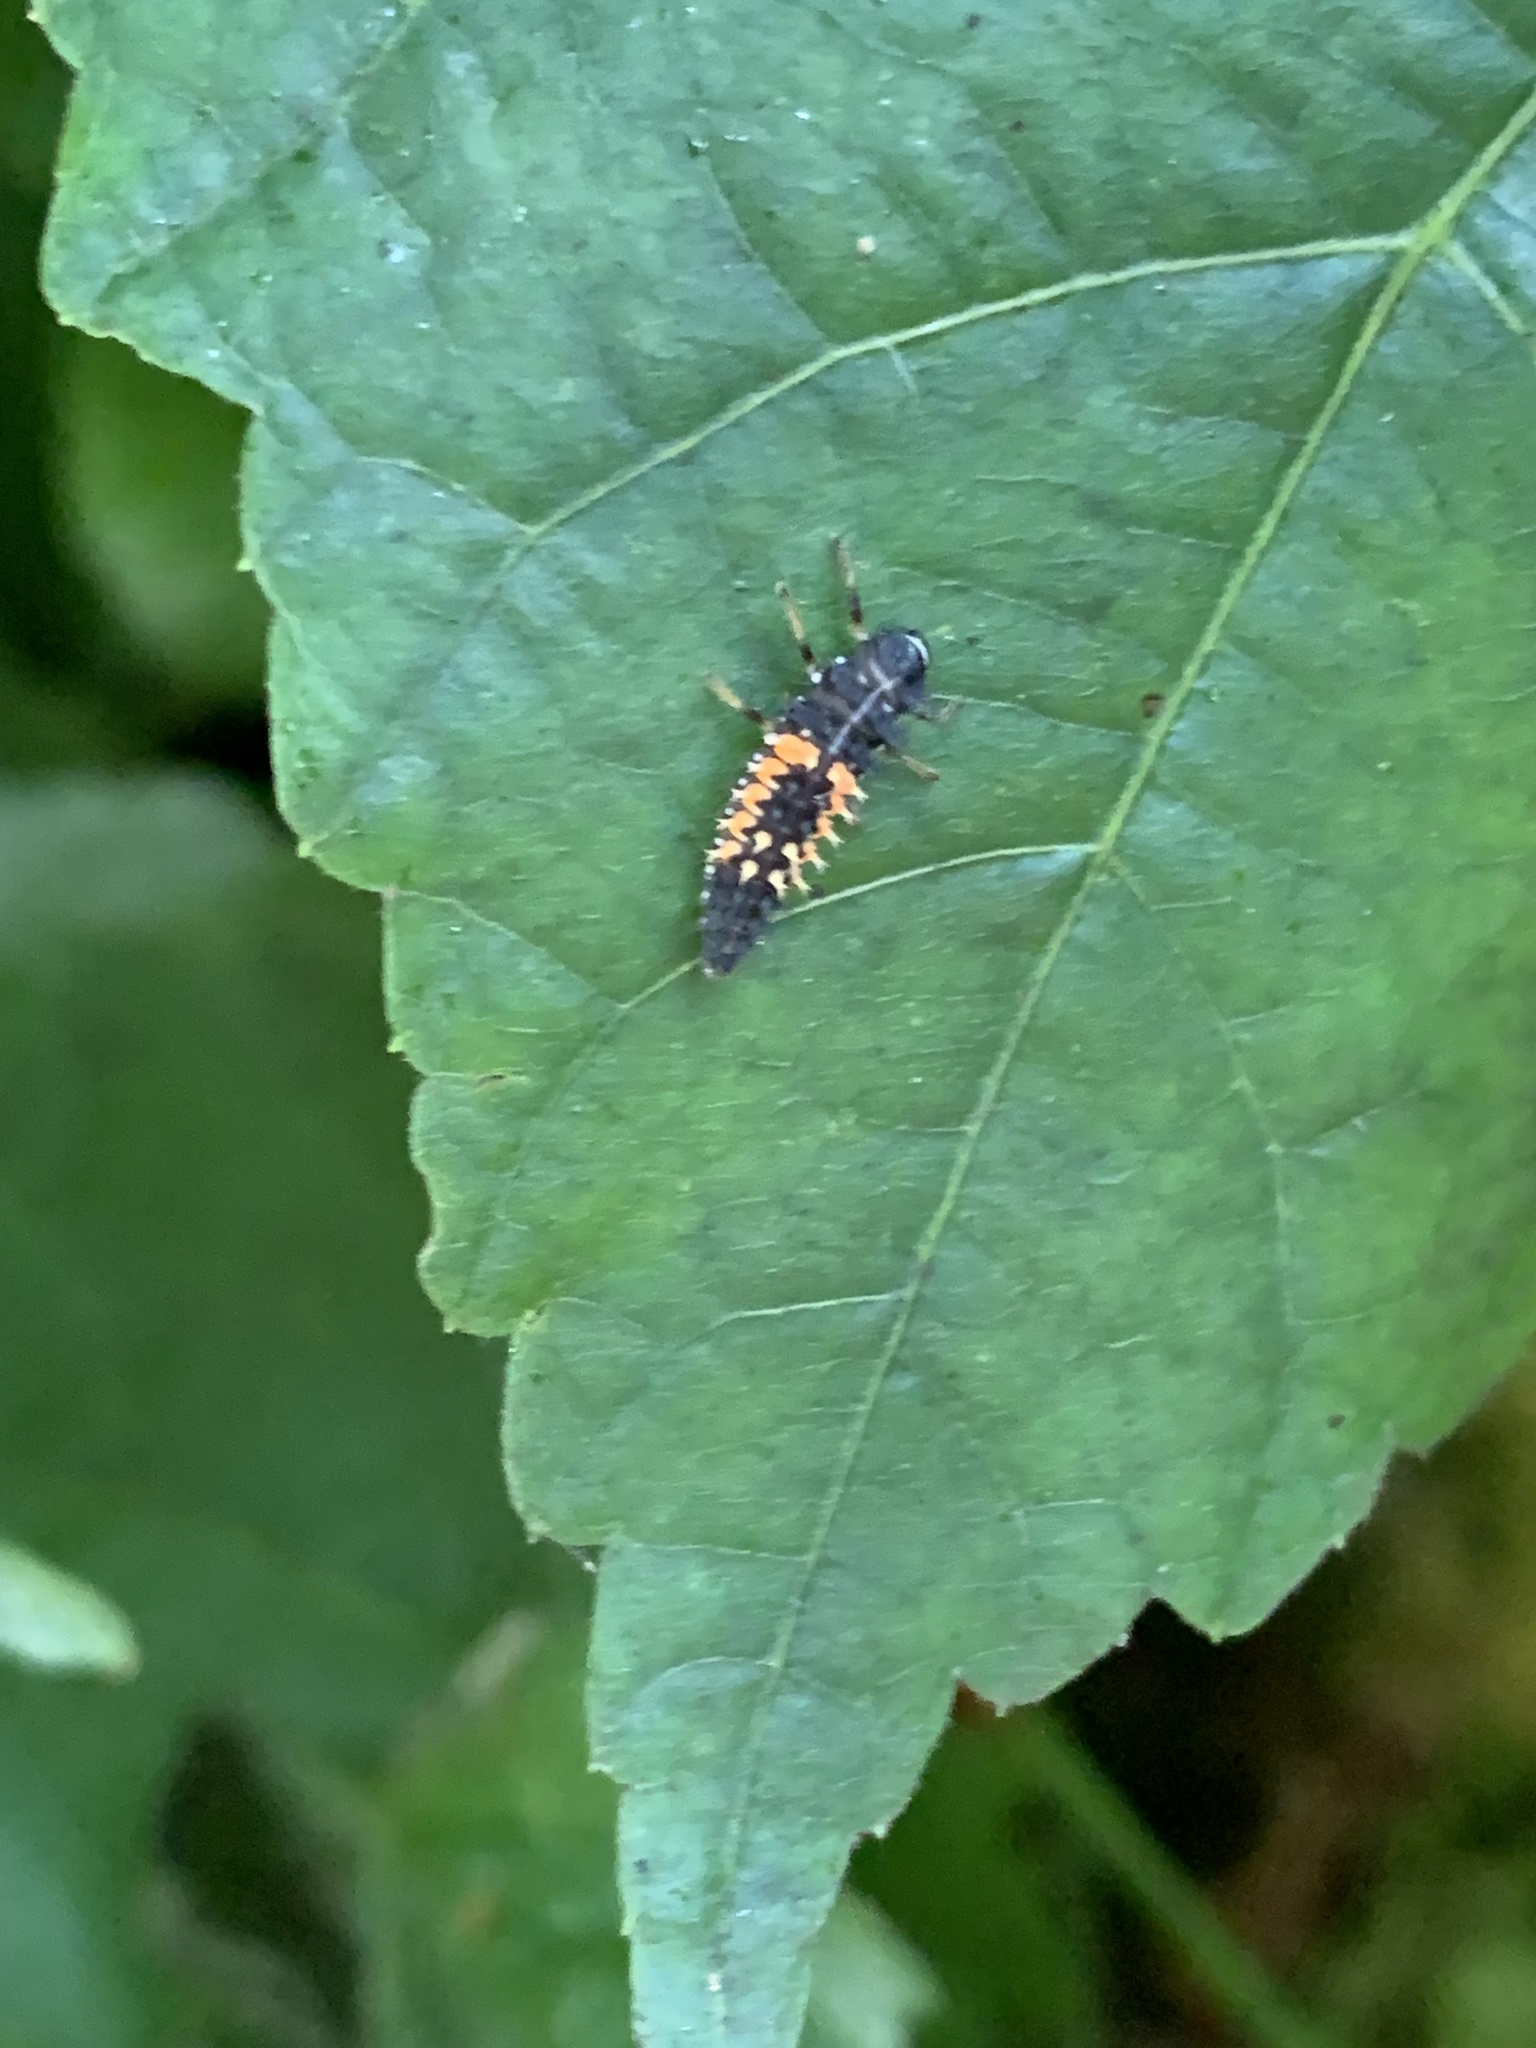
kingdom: Animalia
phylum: Arthropoda
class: Insecta
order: Coleoptera
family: Coccinellidae
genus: Harmonia
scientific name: Harmonia axyridis
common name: Harlequin ladybird
